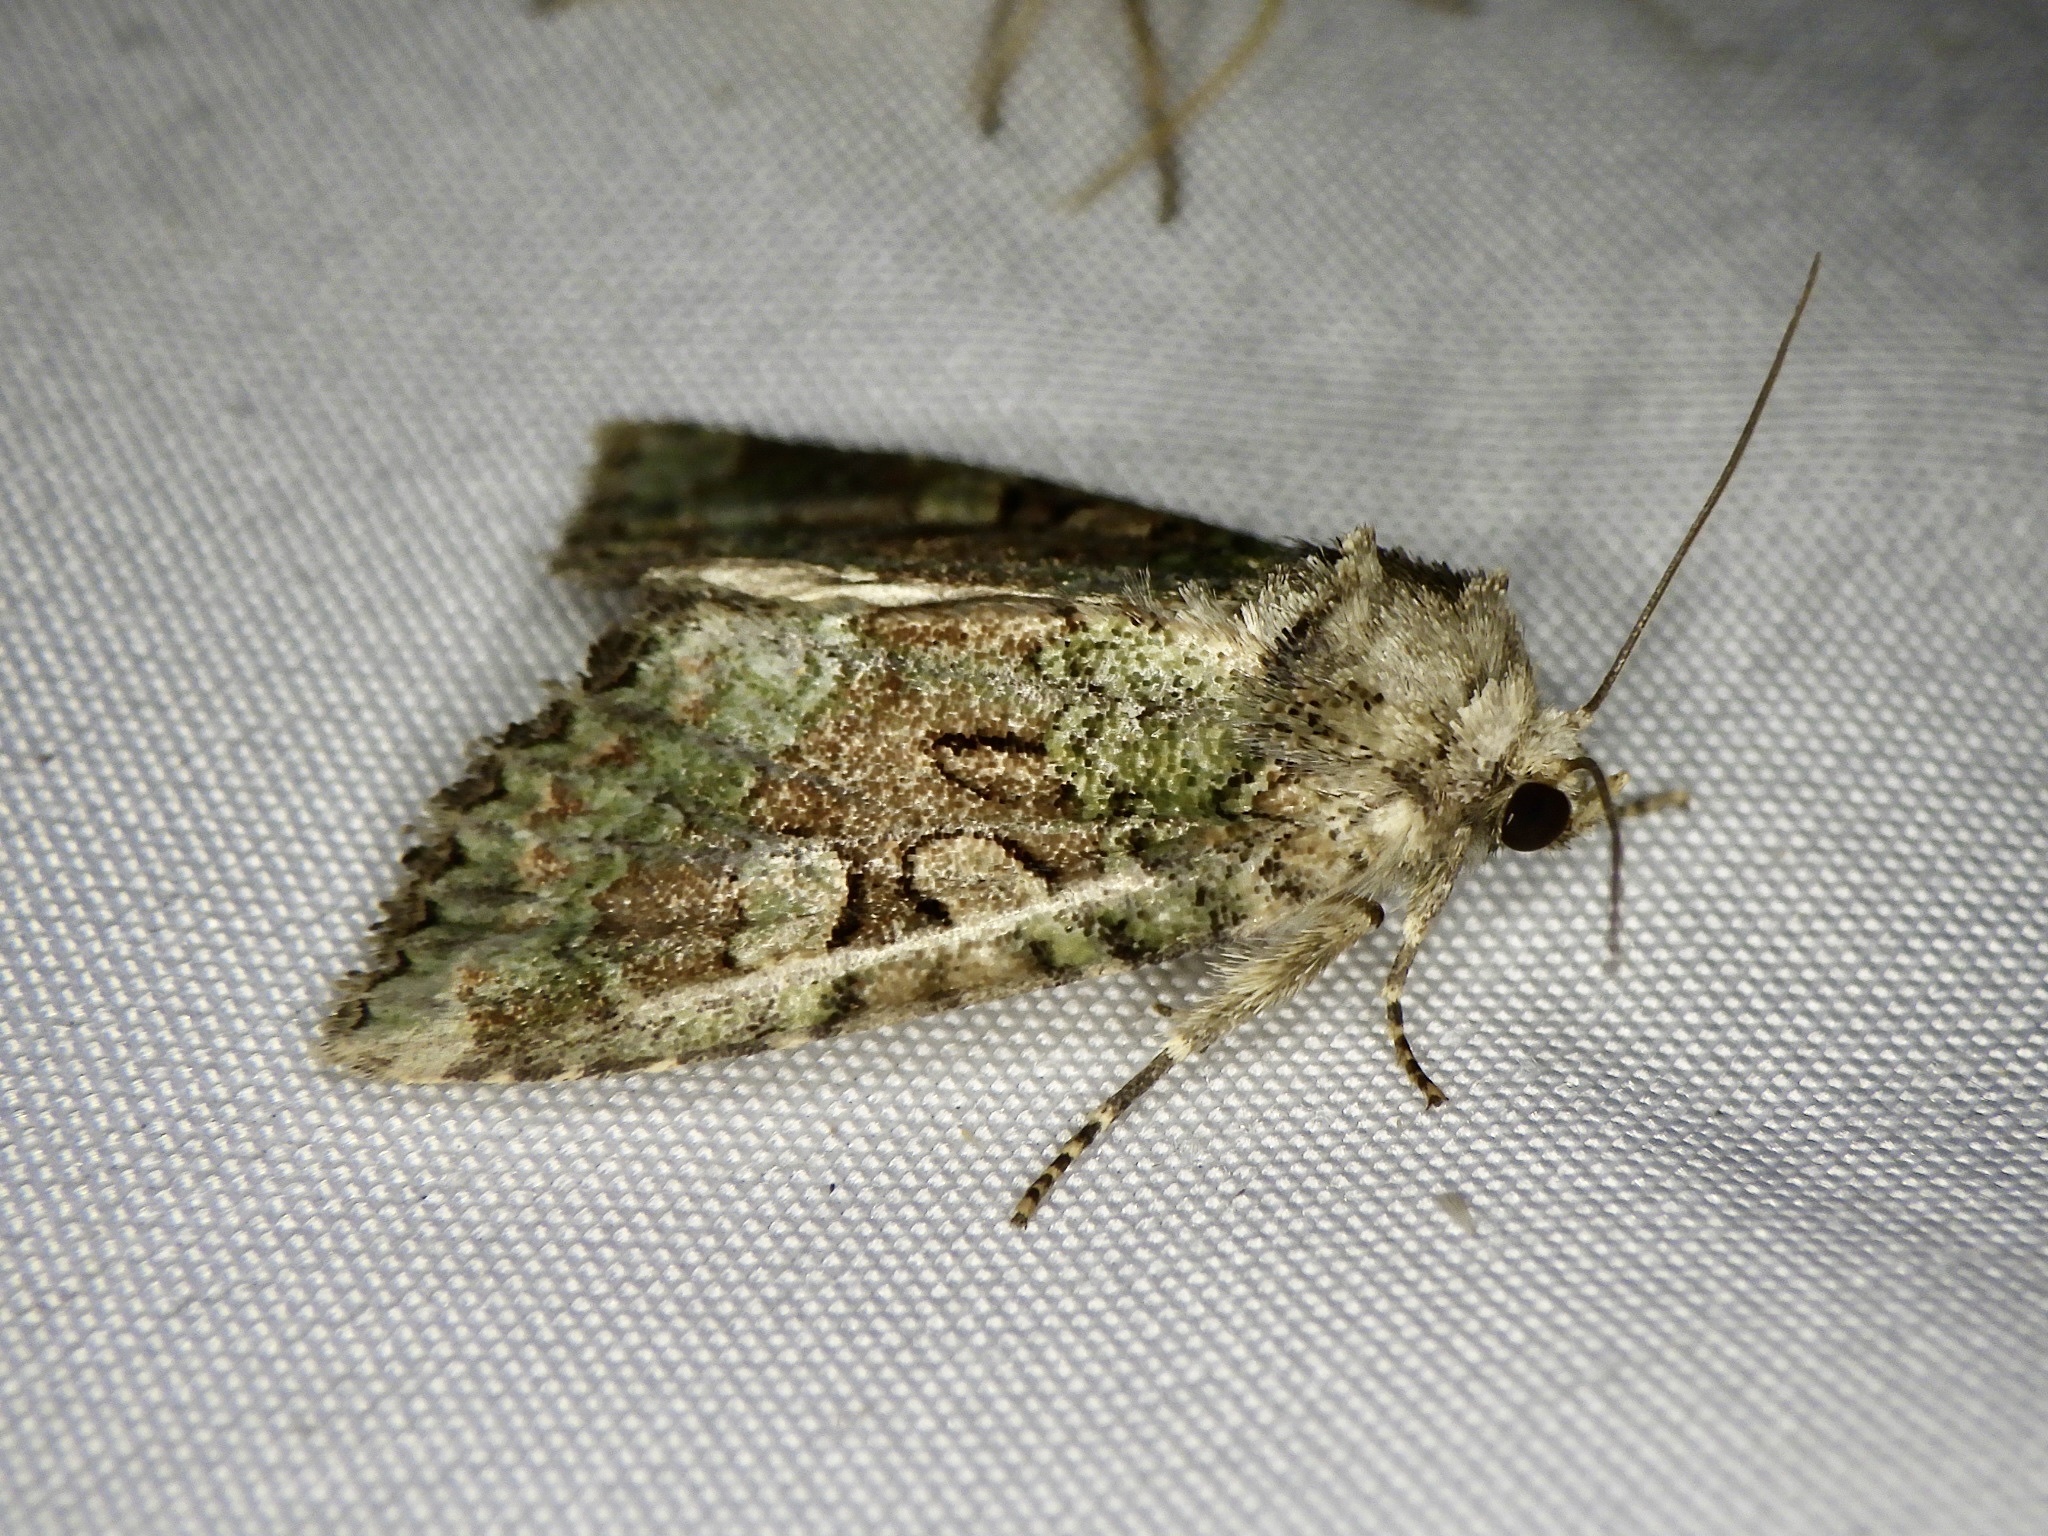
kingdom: Animalia
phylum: Arthropoda
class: Insecta
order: Lepidoptera
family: Noctuidae
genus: Sapporia
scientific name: Sapporia
